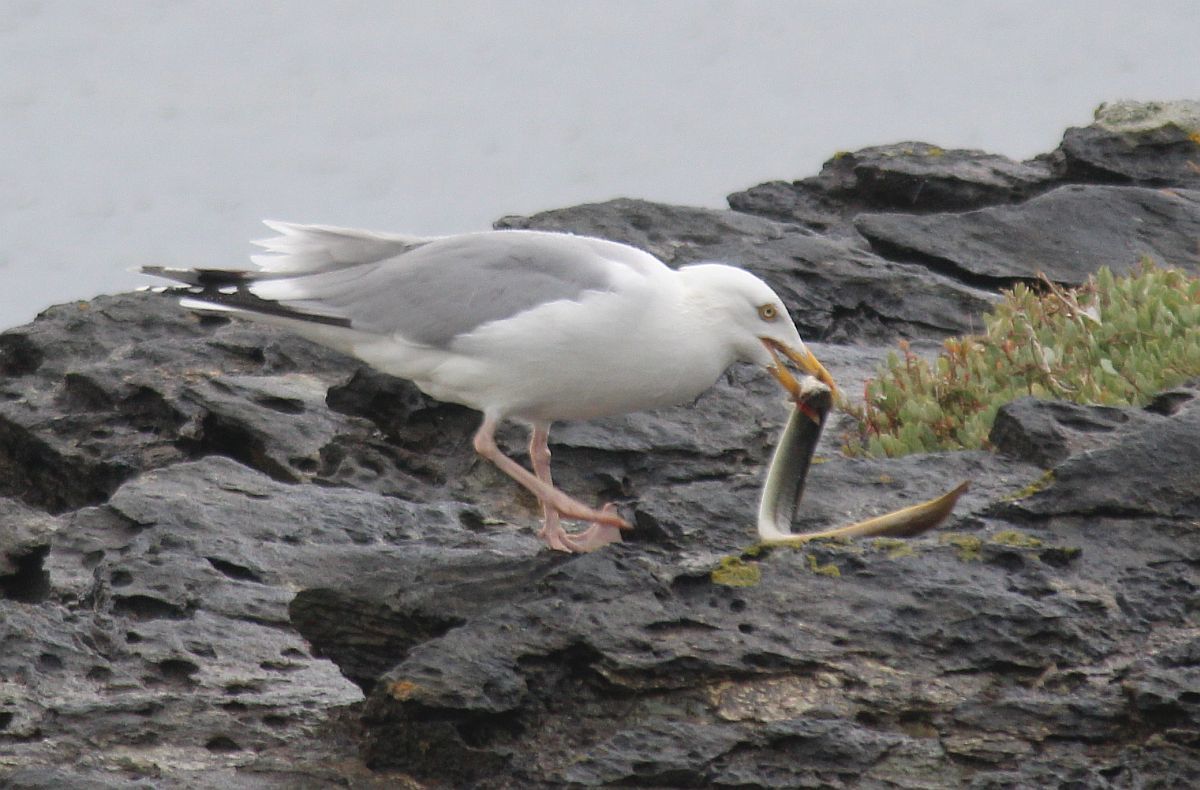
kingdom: Animalia
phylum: Chordata
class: Aves
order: Charadriiformes
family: Laridae
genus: Larus
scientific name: Larus argentatus
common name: Herring gull
